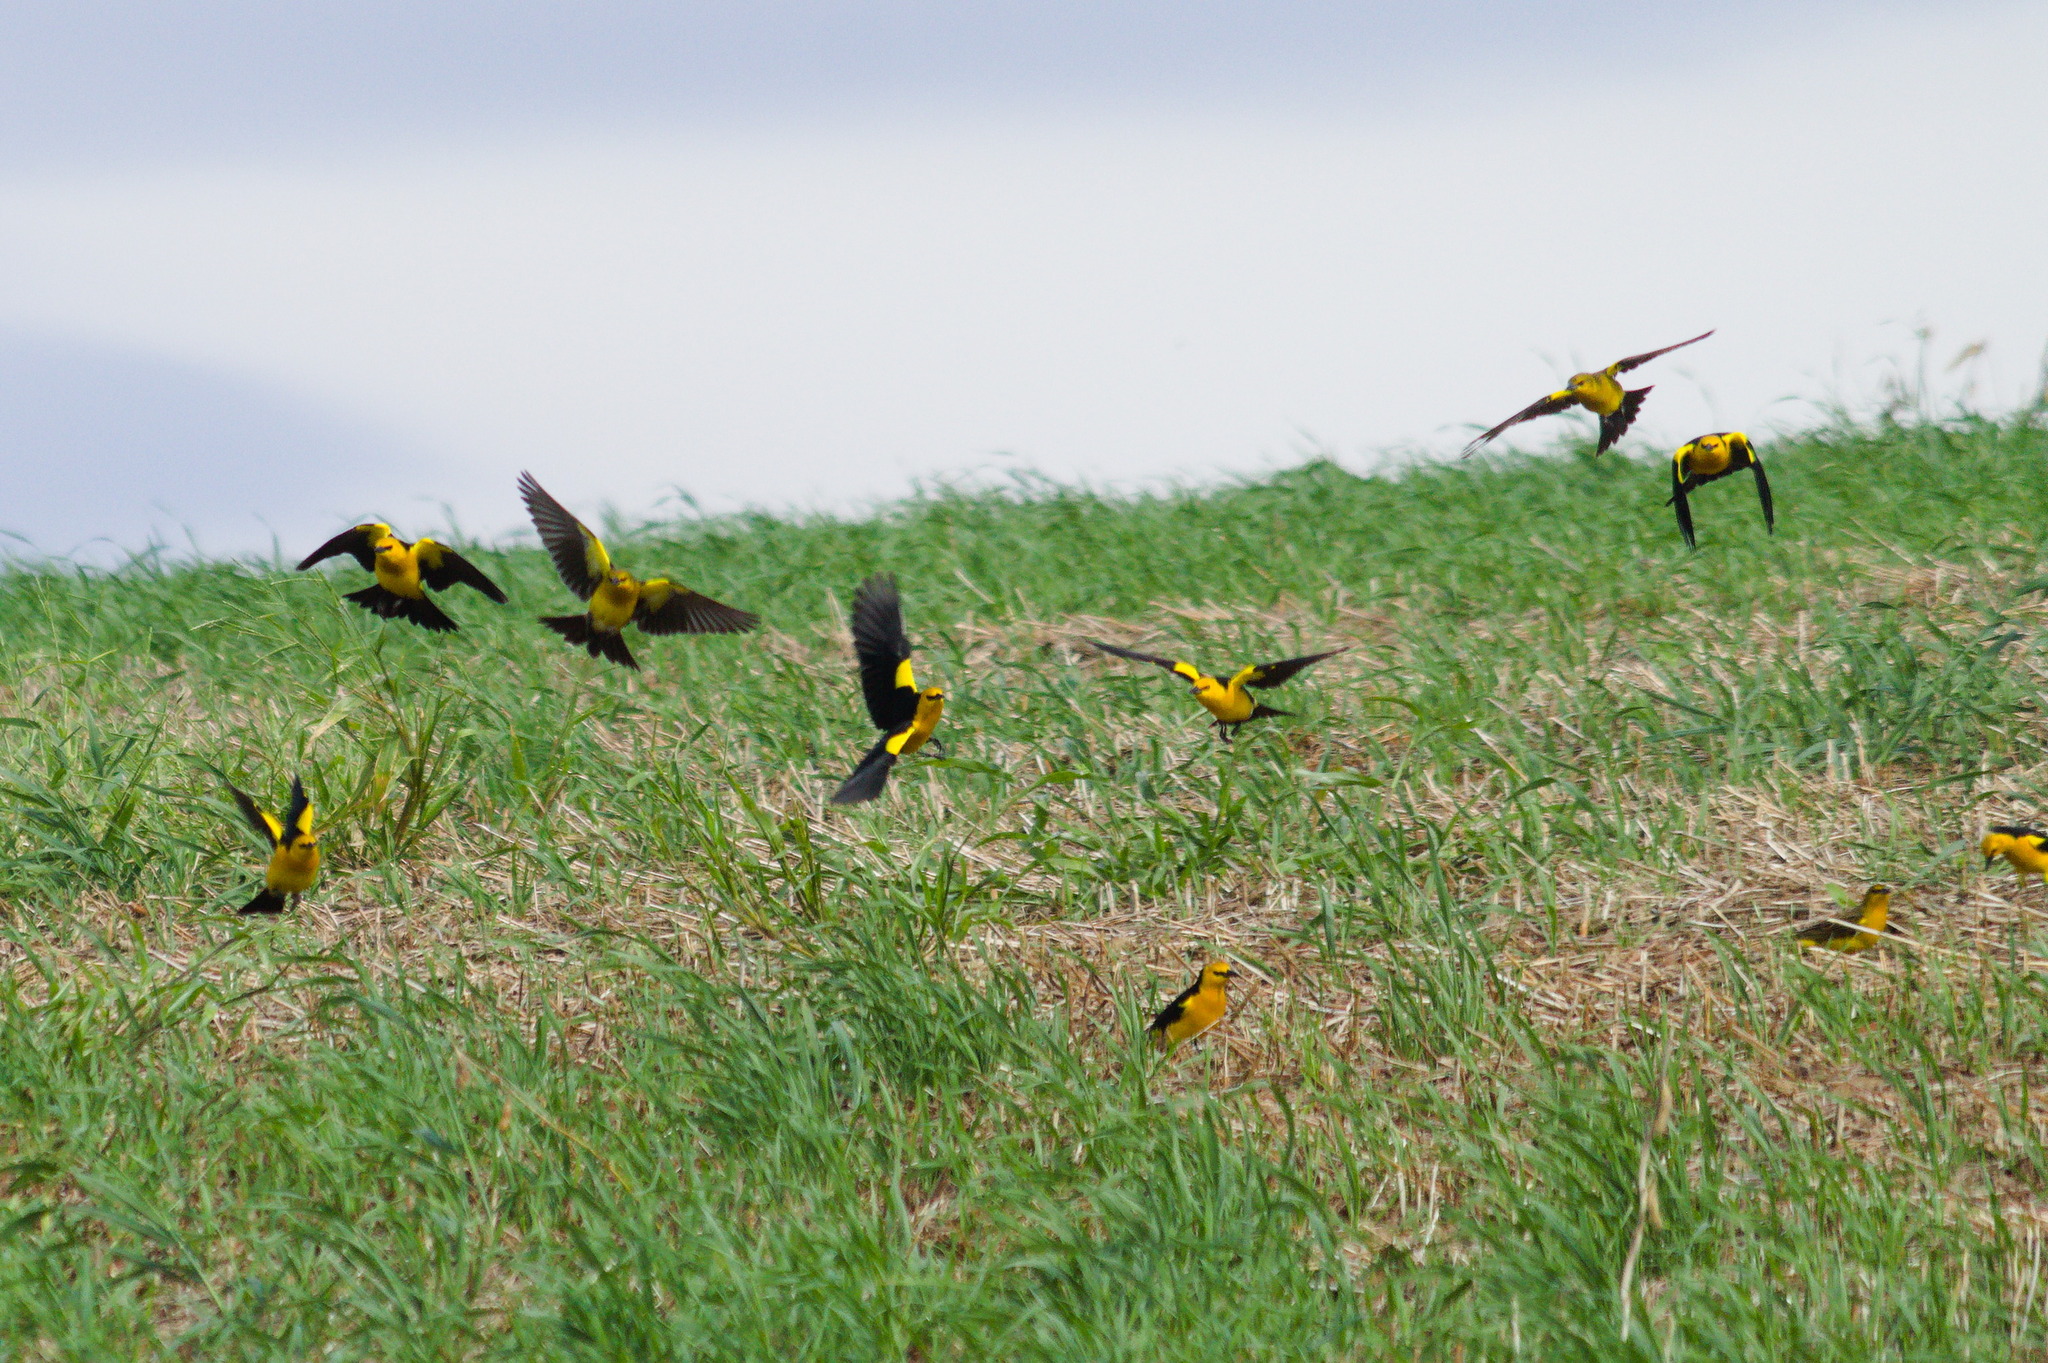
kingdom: Animalia
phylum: Chordata
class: Aves
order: Passeriformes
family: Icteridae
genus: Xanthopsar
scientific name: Xanthopsar flavus
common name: Saffron-cowled blackbird
